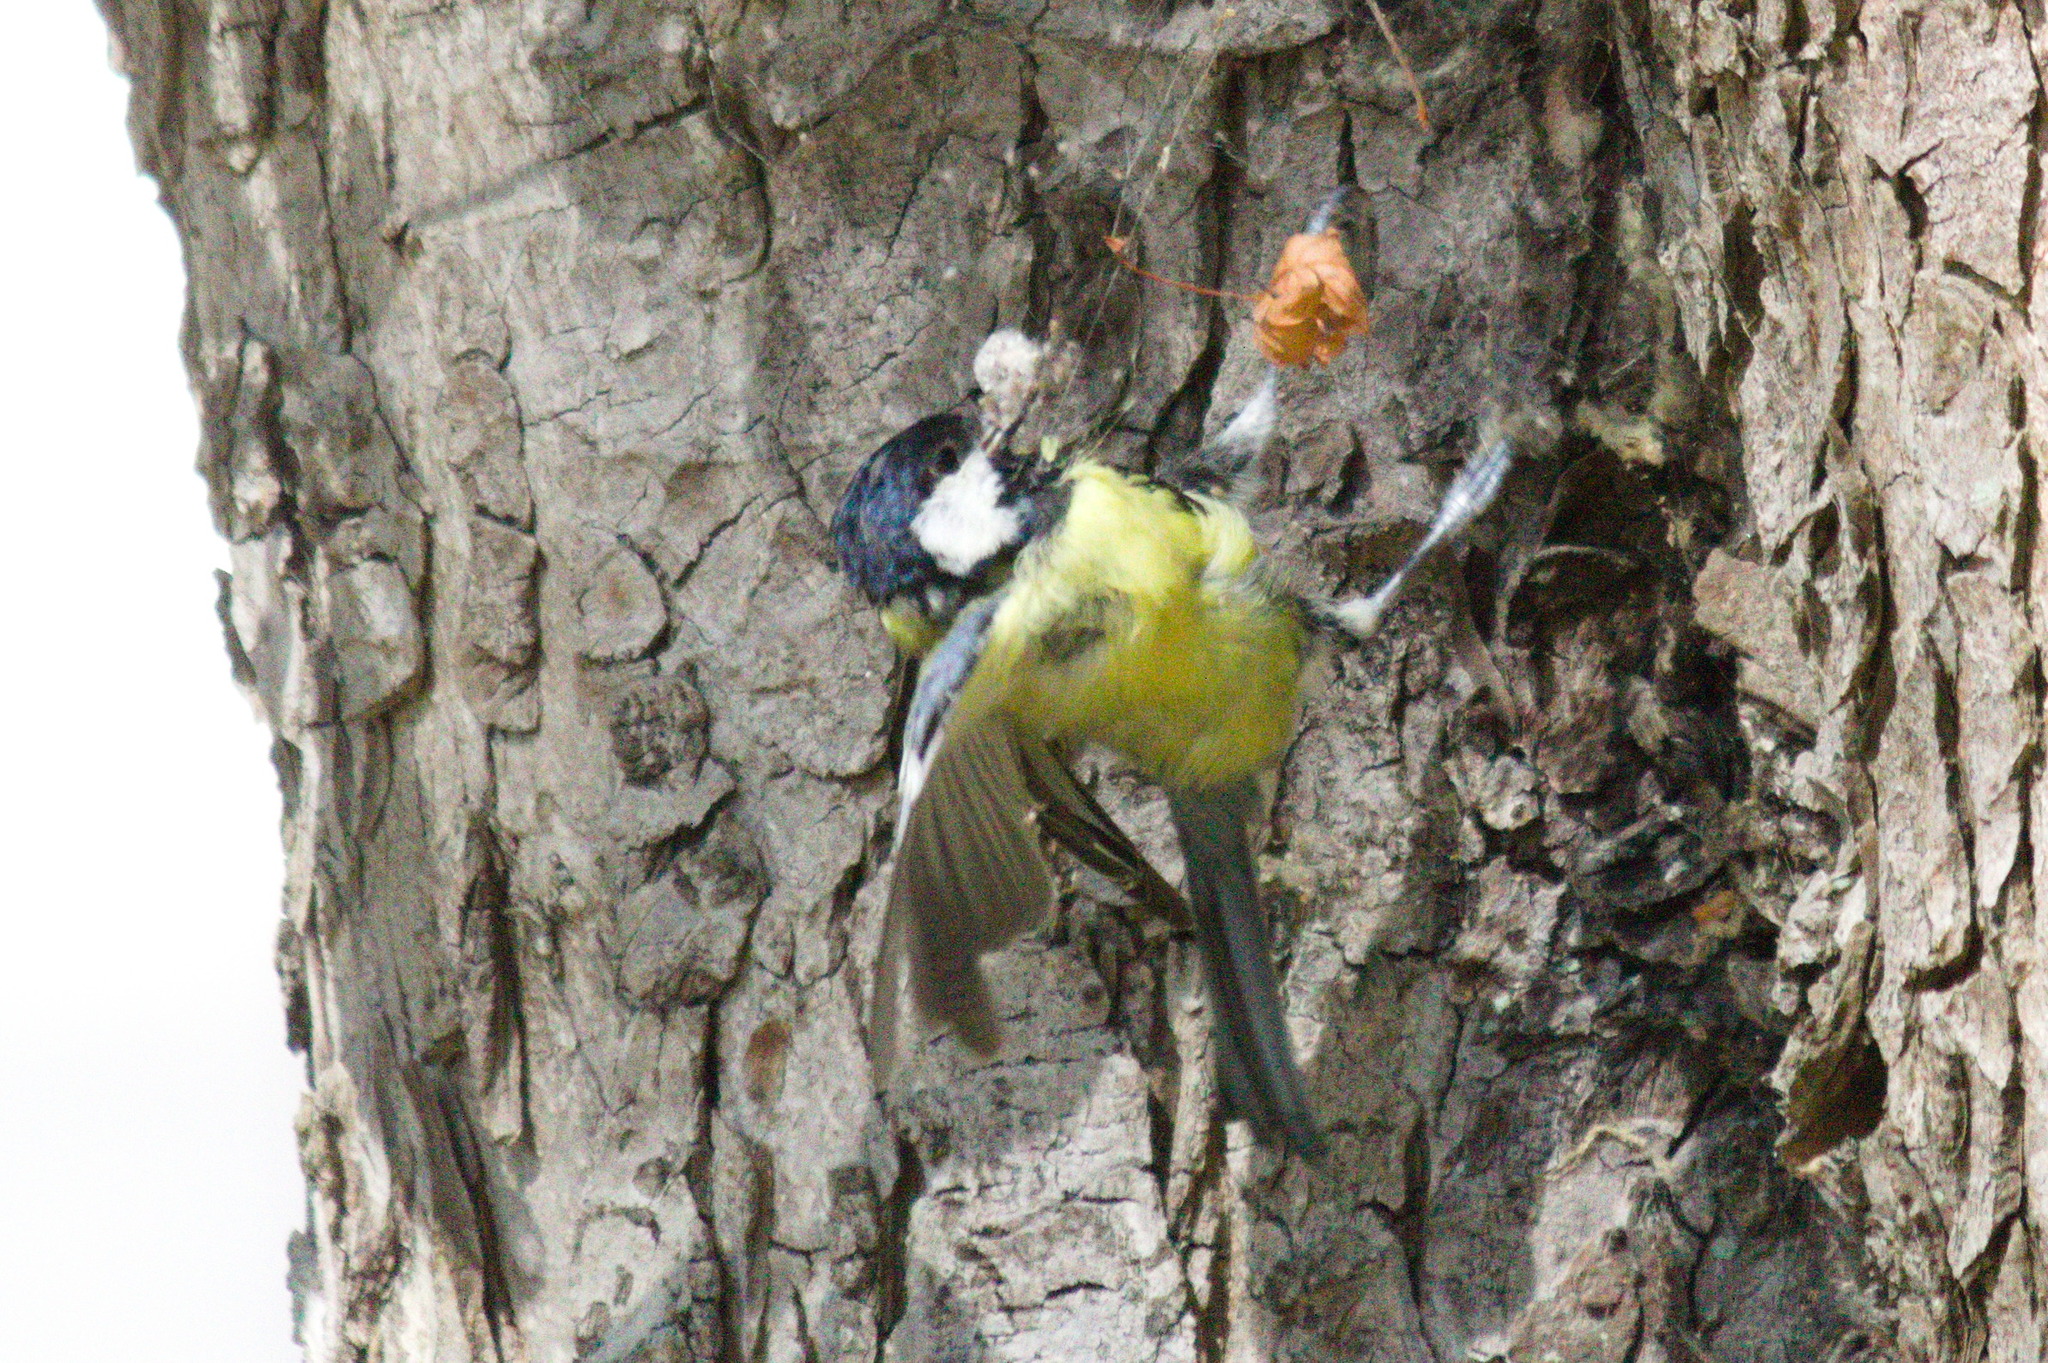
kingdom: Animalia
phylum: Chordata
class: Aves
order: Passeriformes
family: Paridae
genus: Parus
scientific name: Parus major
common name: Great tit
